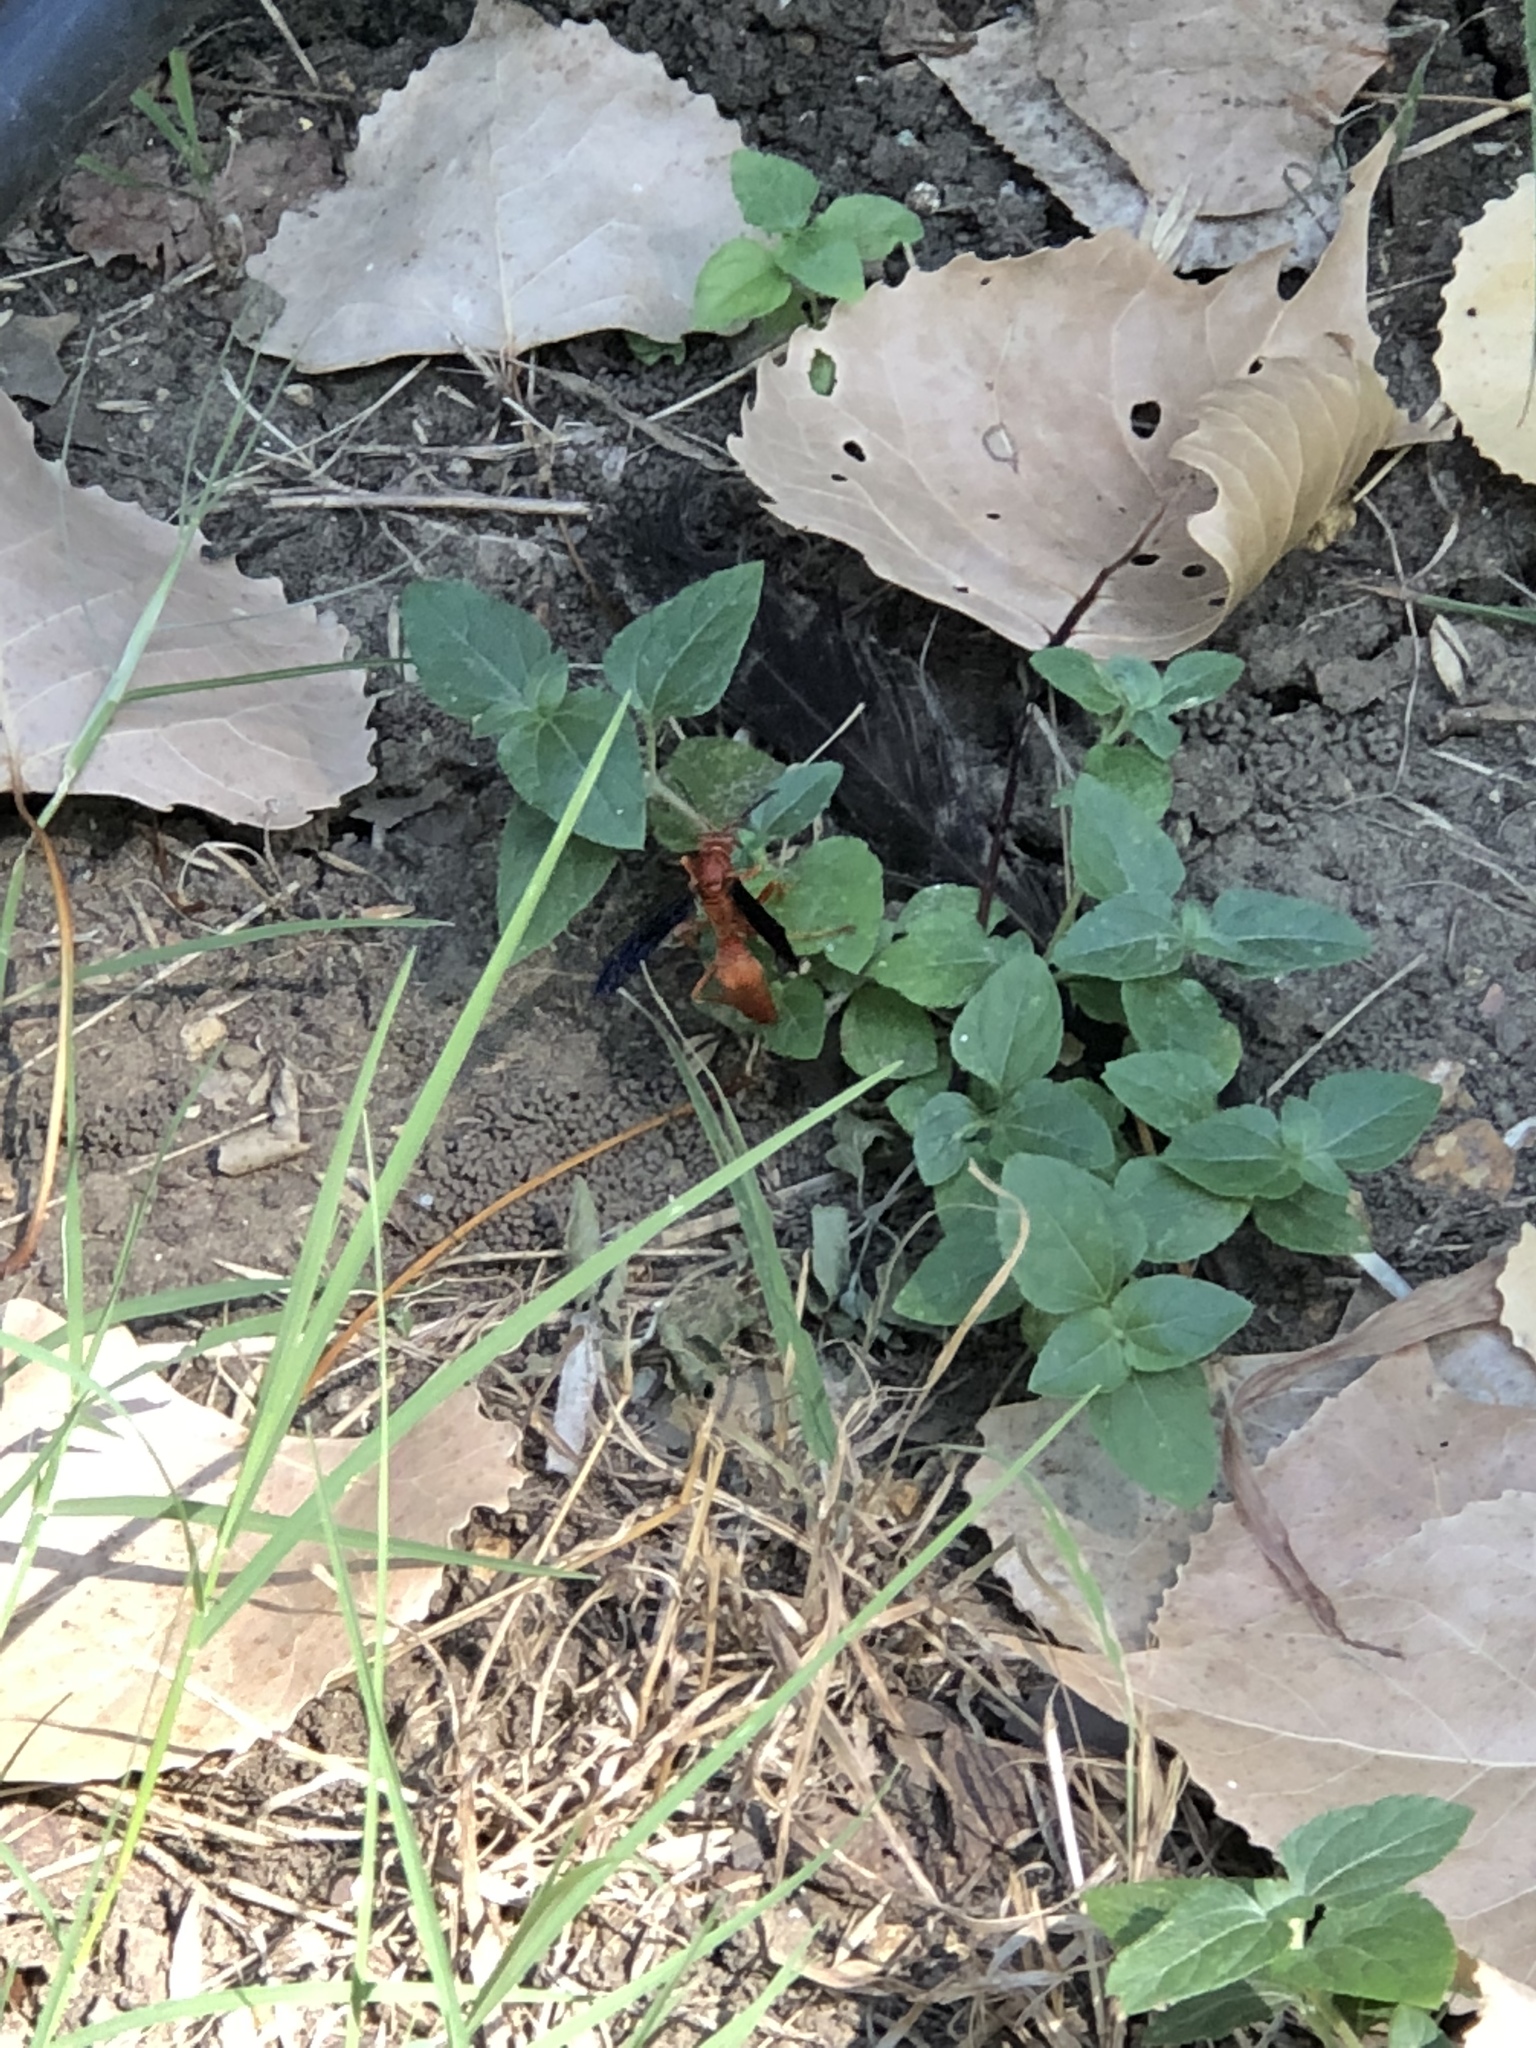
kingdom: Animalia
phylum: Arthropoda
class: Insecta
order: Hymenoptera
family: Eumenidae
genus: Polistes
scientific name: Polistes carolina
